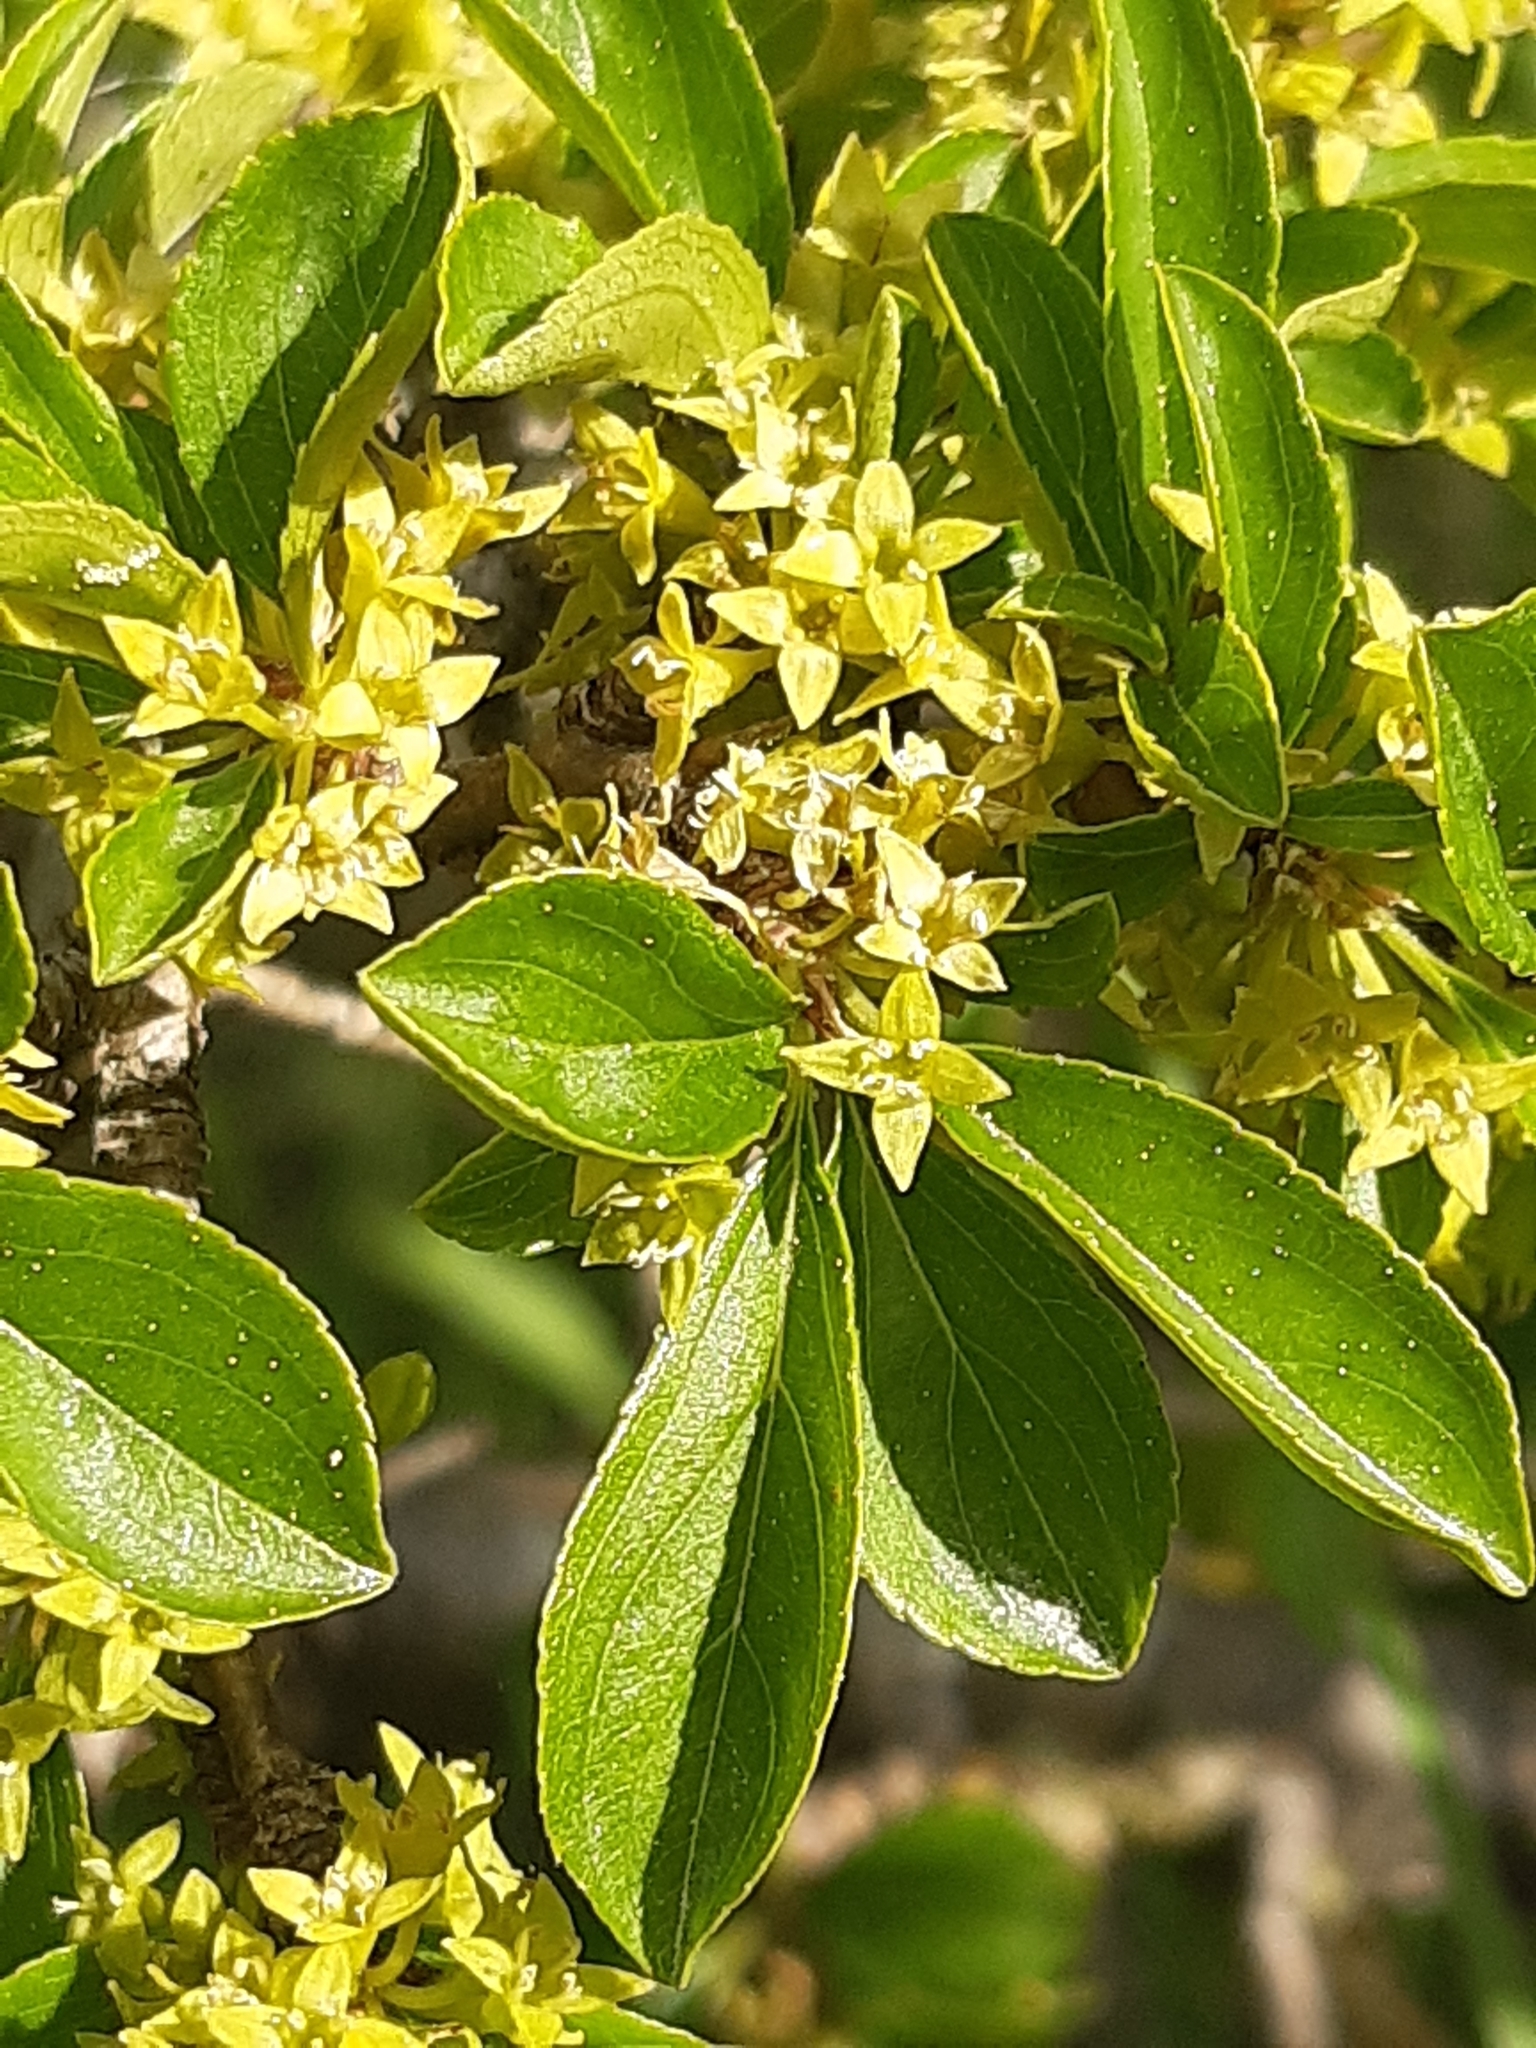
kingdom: Plantae
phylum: Tracheophyta
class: Magnoliopsida
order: Rosales
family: Rhamnaceae
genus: Rhamnus
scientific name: Rhamnus saxatilis
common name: Rock buckthorn
